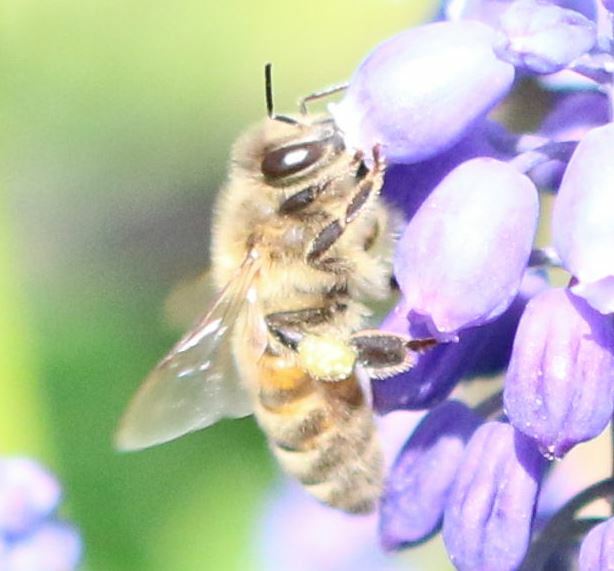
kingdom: Animalia
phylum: Arthropoda
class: Insecta
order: Hymenoptera
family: Apidae
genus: Apis
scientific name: Apis mellifera
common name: Honey bee
